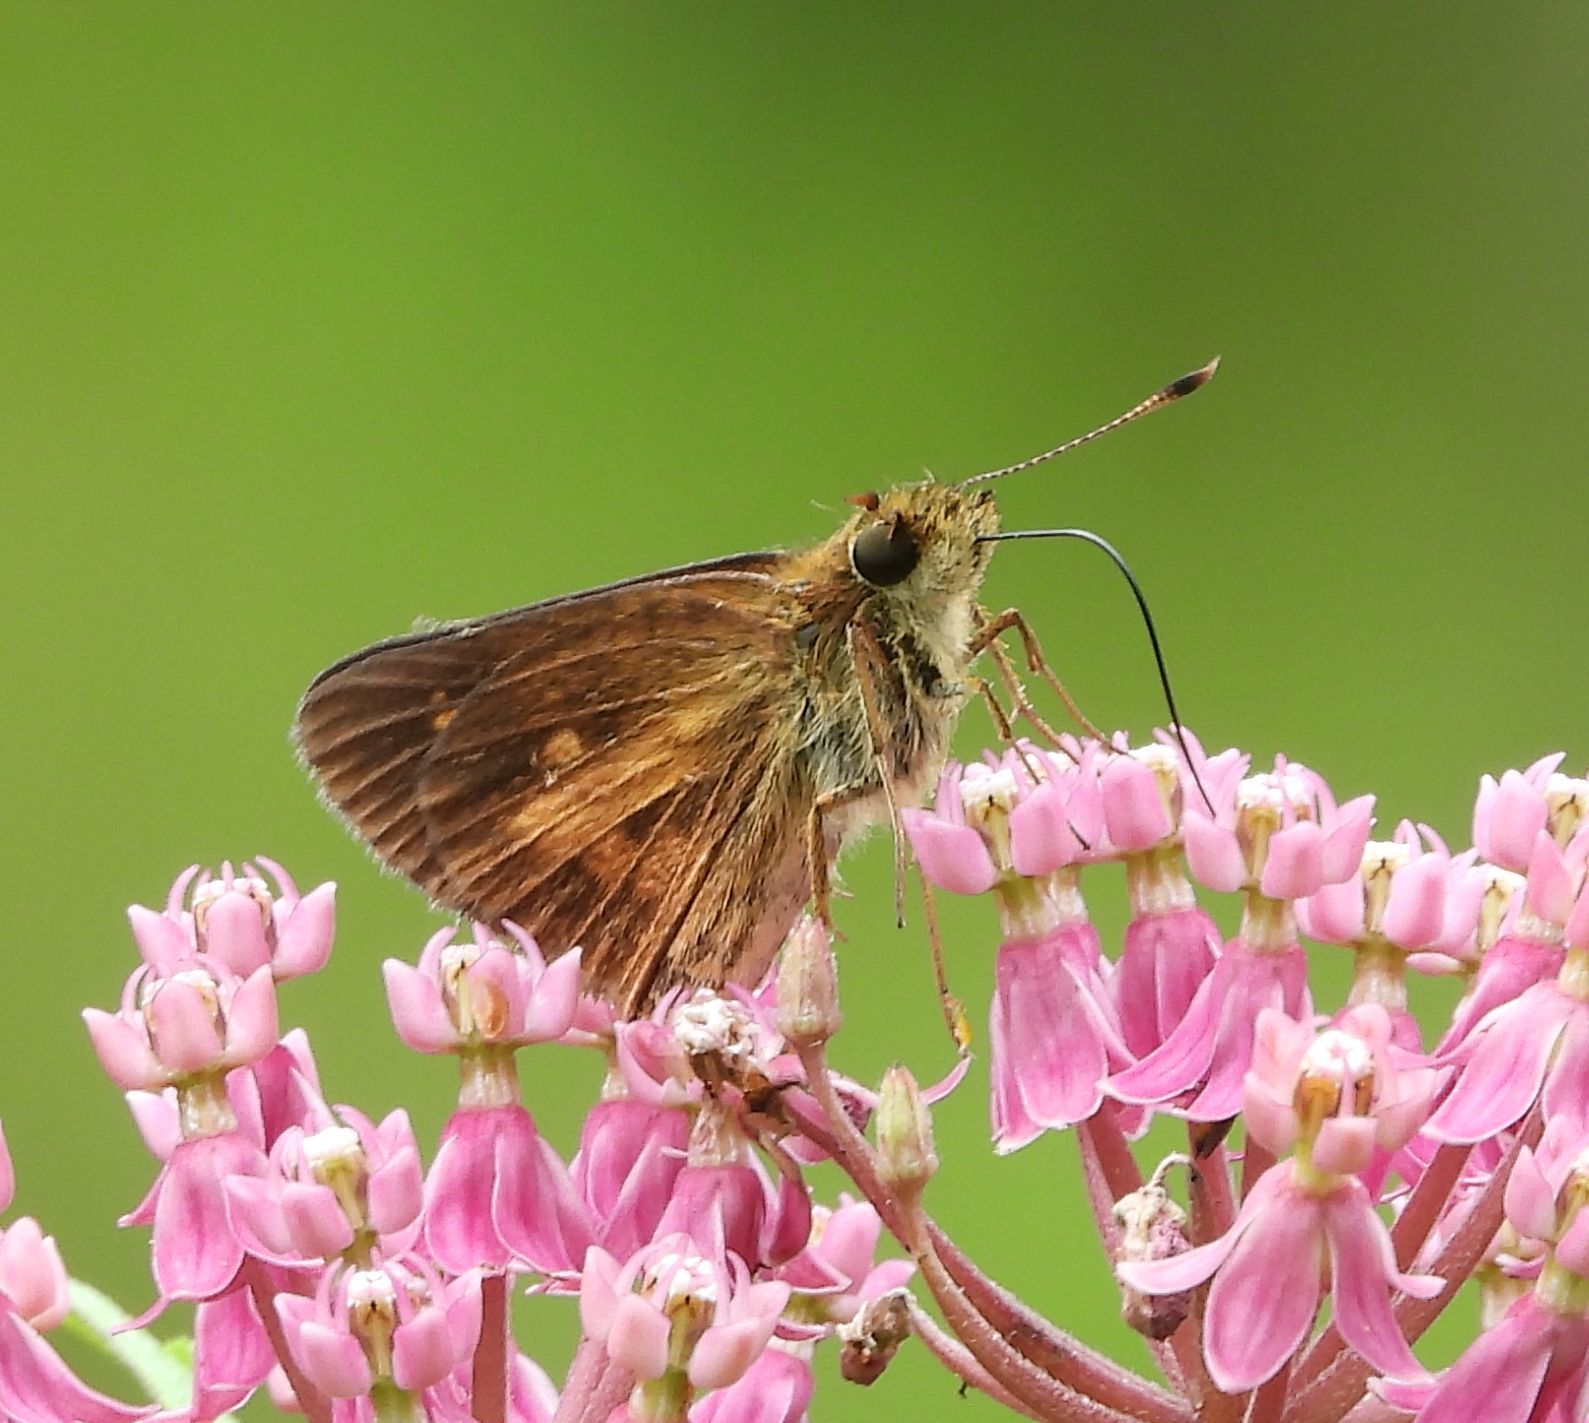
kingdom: Animalia
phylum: Arthropoda
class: Insecta
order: Lepidoptera
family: Hesperiidae
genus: Poanes
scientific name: Poanes viator
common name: Broad-winged skipper
